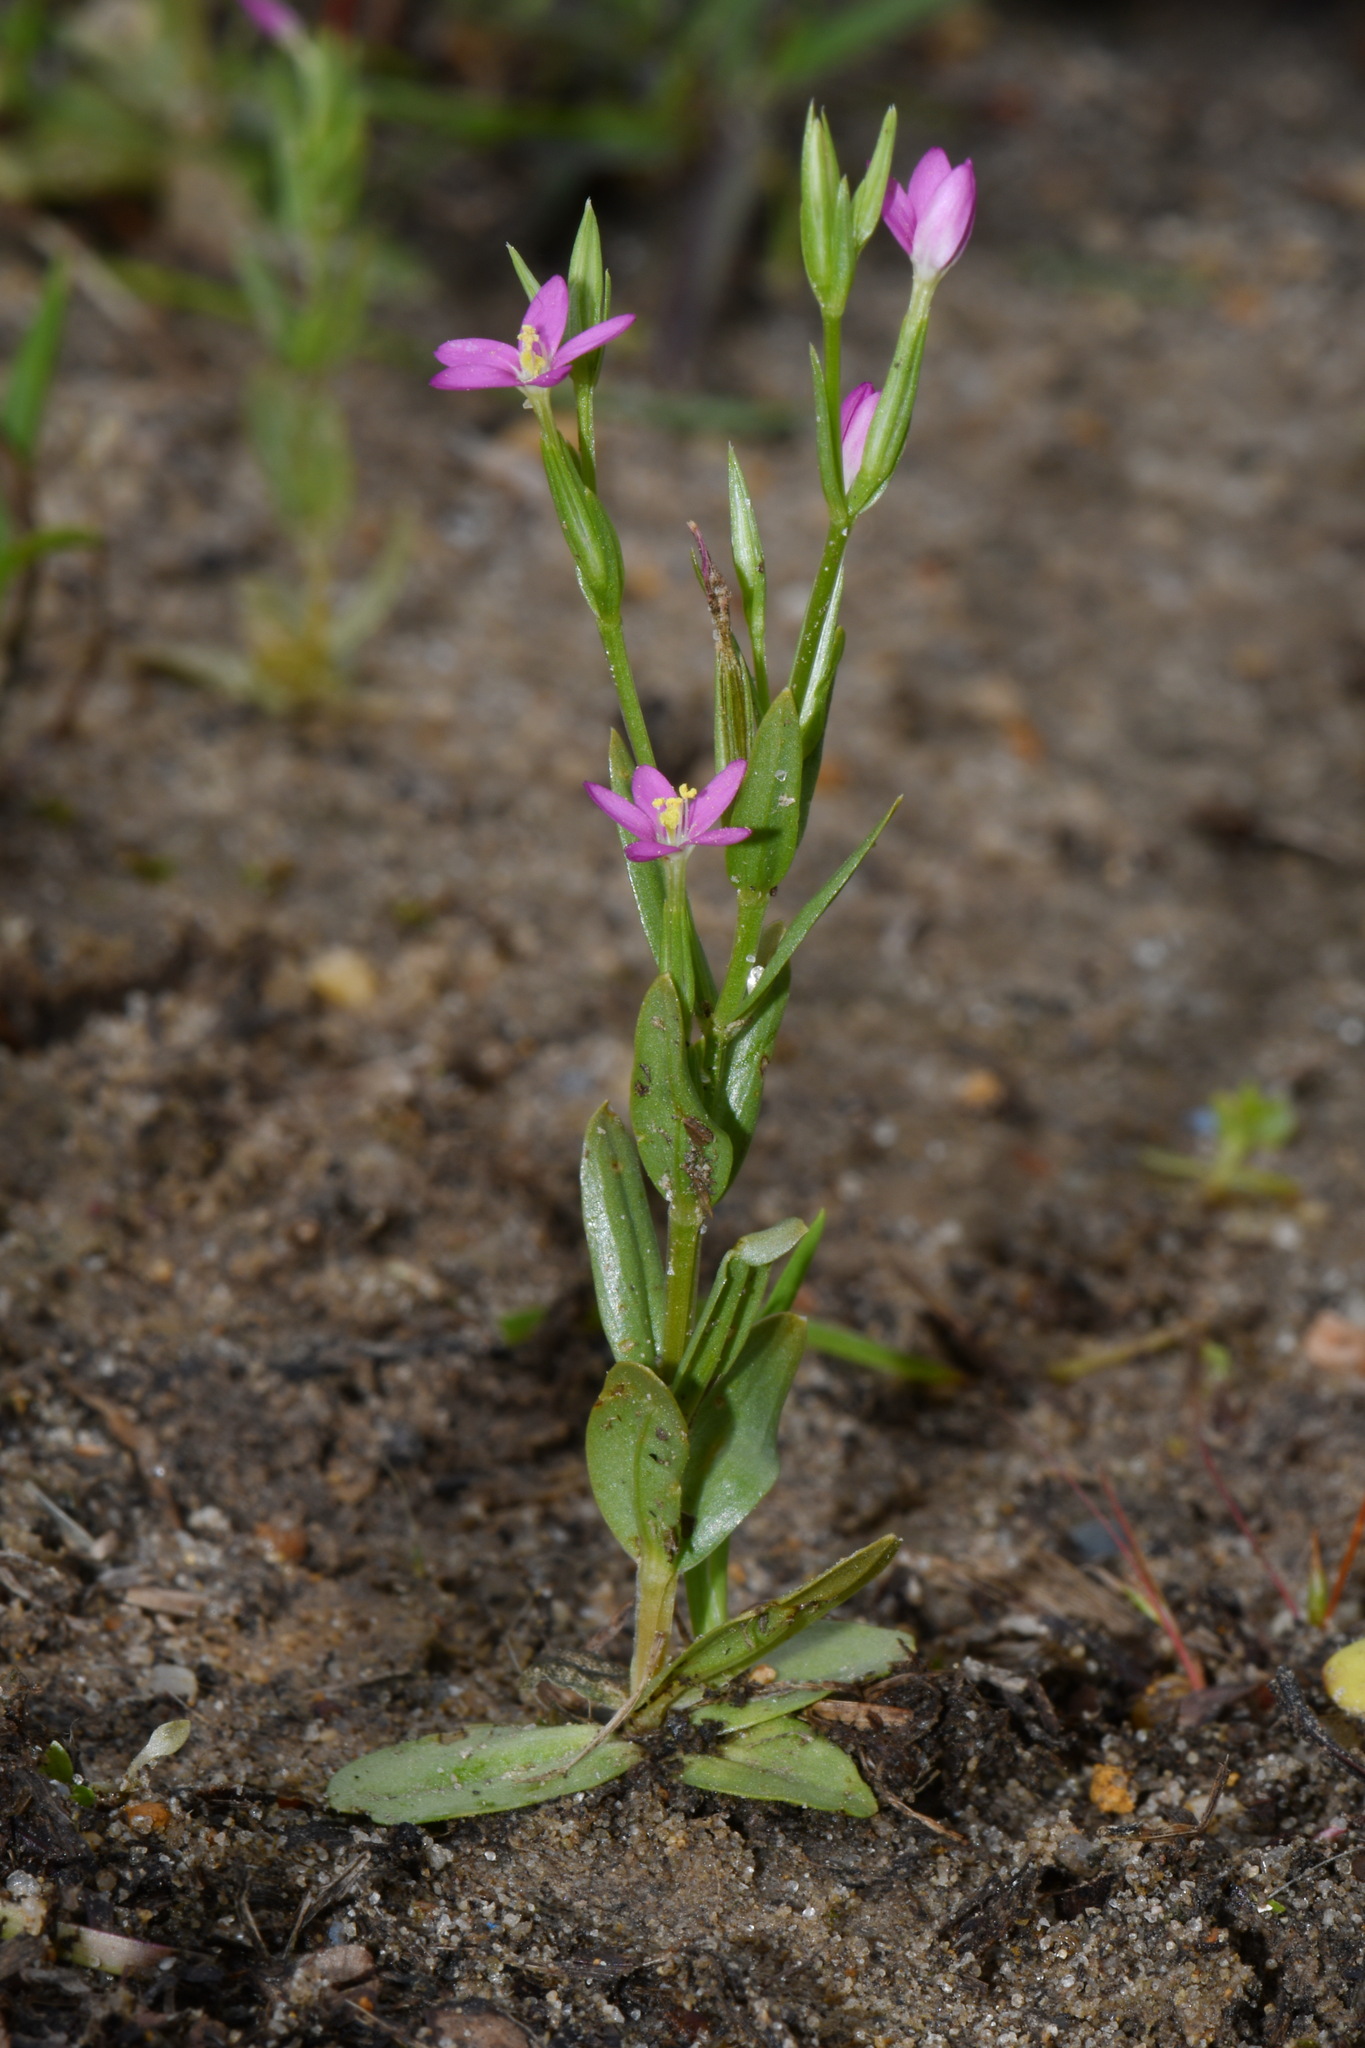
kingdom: Plantae
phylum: Tracheophyta
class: Magnoliopsida
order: Gentianales
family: Gentianaceae
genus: Centaurium
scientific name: Centaurium pulchellum
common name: Lesser centaury
